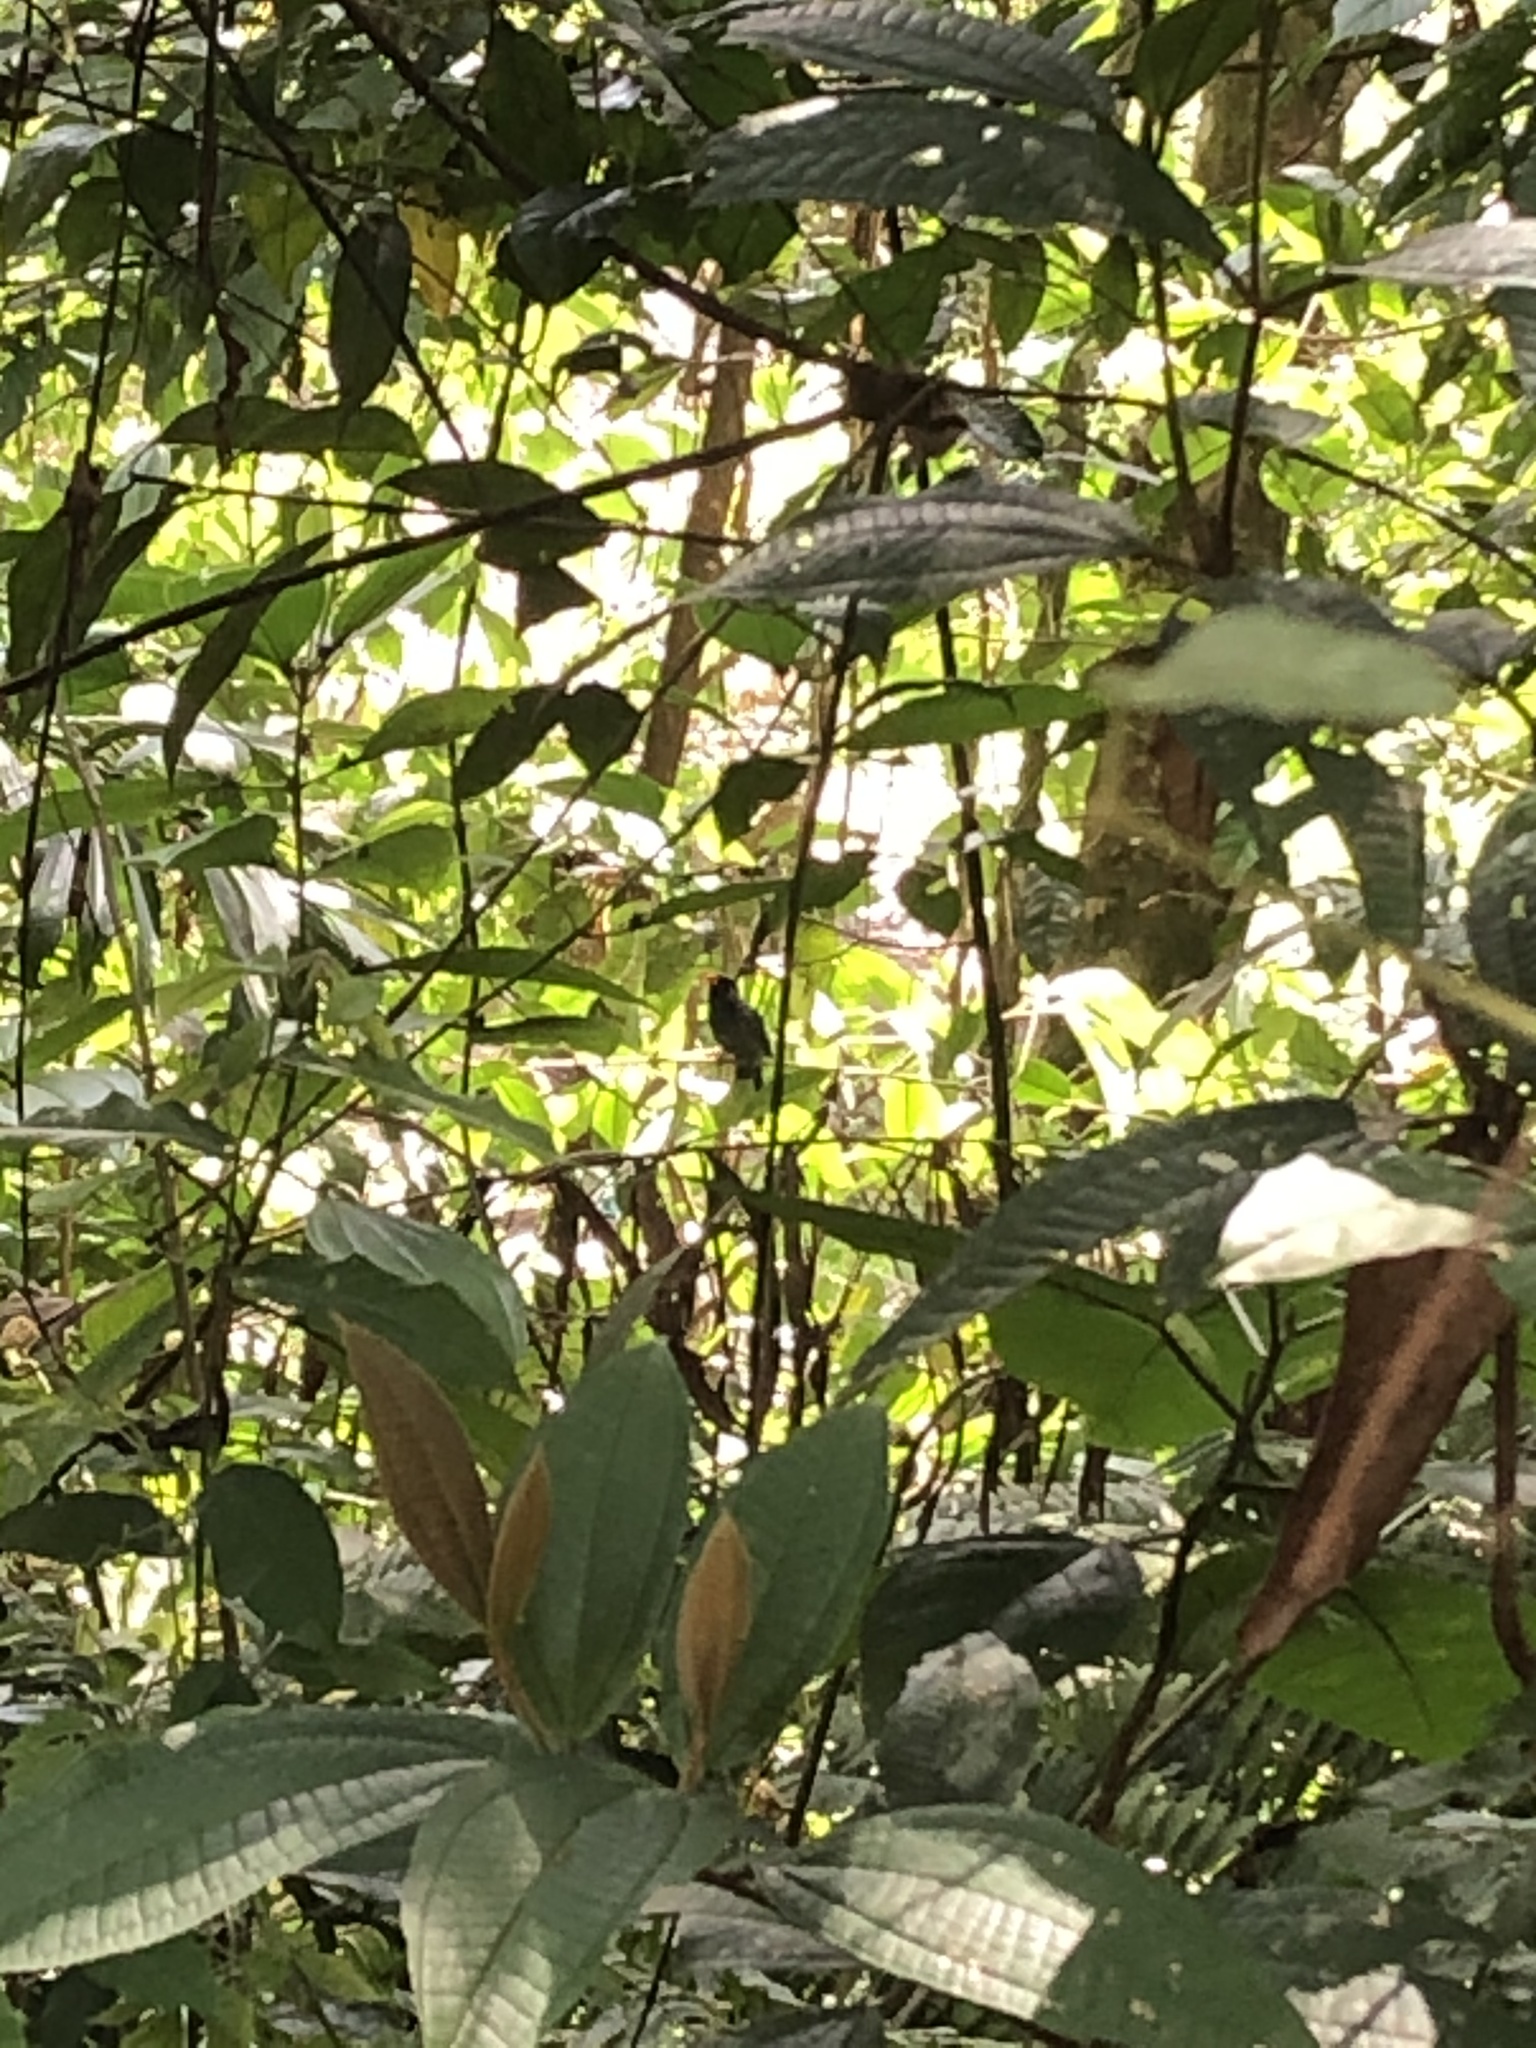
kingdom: Animalia
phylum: Chordata
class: Aves
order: Piciformes
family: Bucconidae
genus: Monasa
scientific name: Monasa nigrifrons
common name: Black-fronted nunbird
